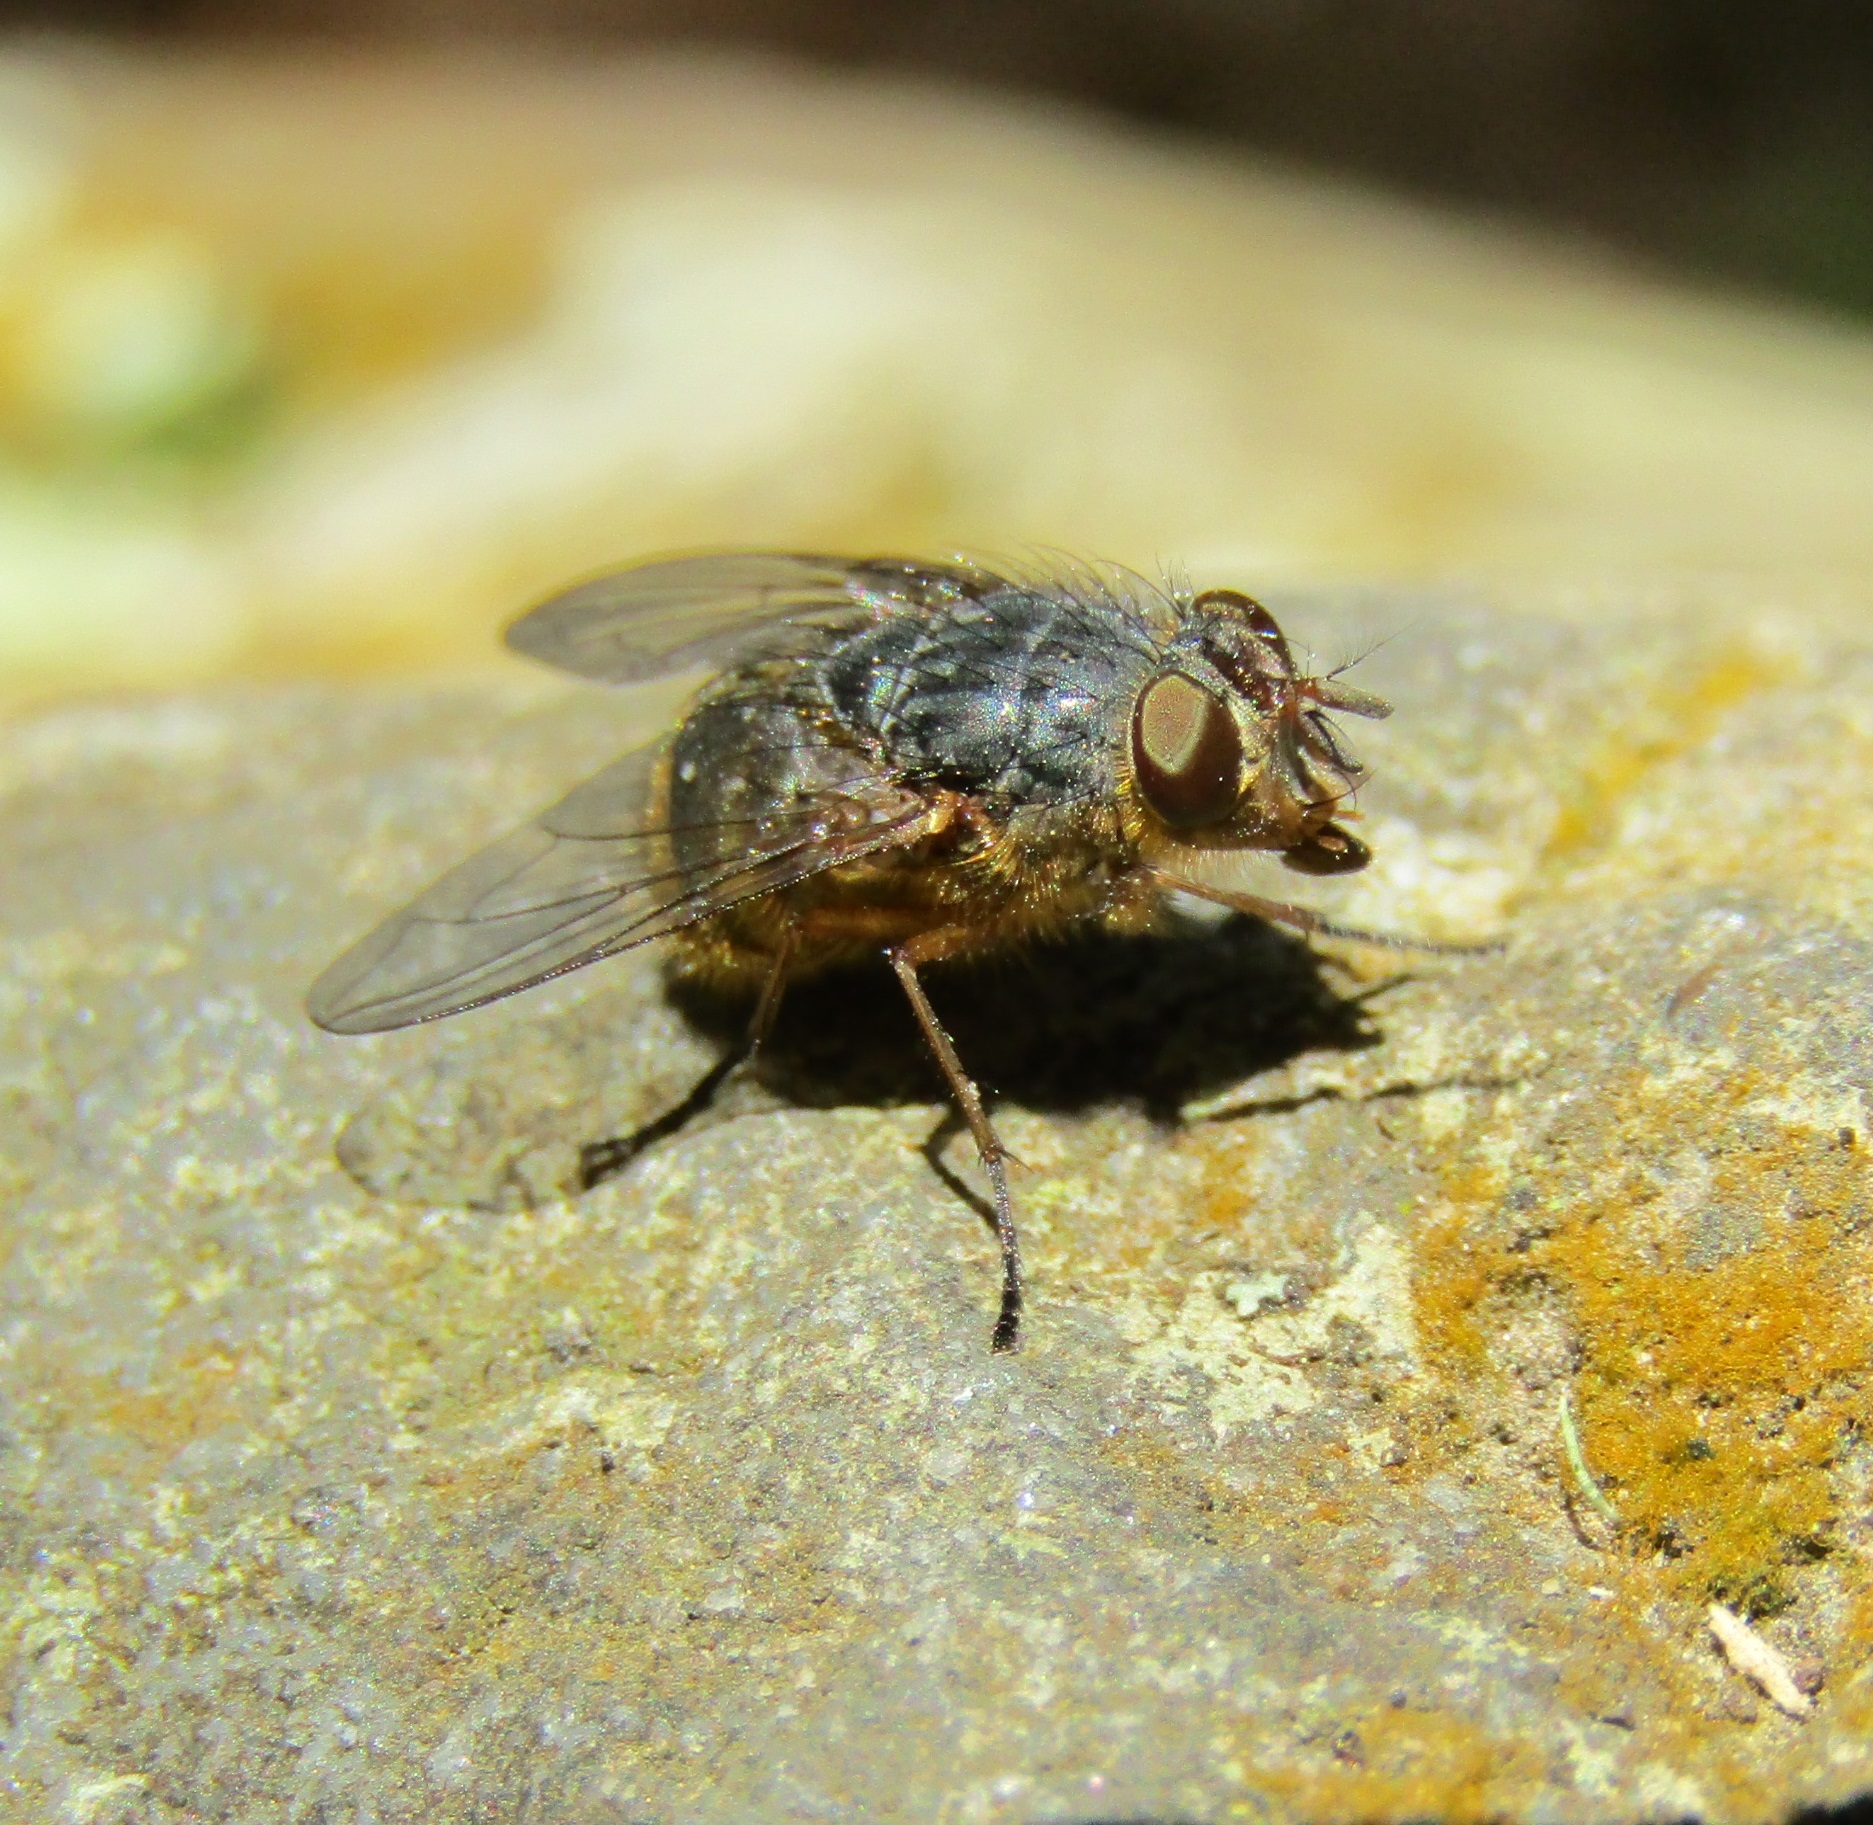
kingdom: Animalia
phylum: Arthropoda
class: Insecta
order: Diptera
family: Calliphoridae
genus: Calliphora
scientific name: Calliphora hilli
